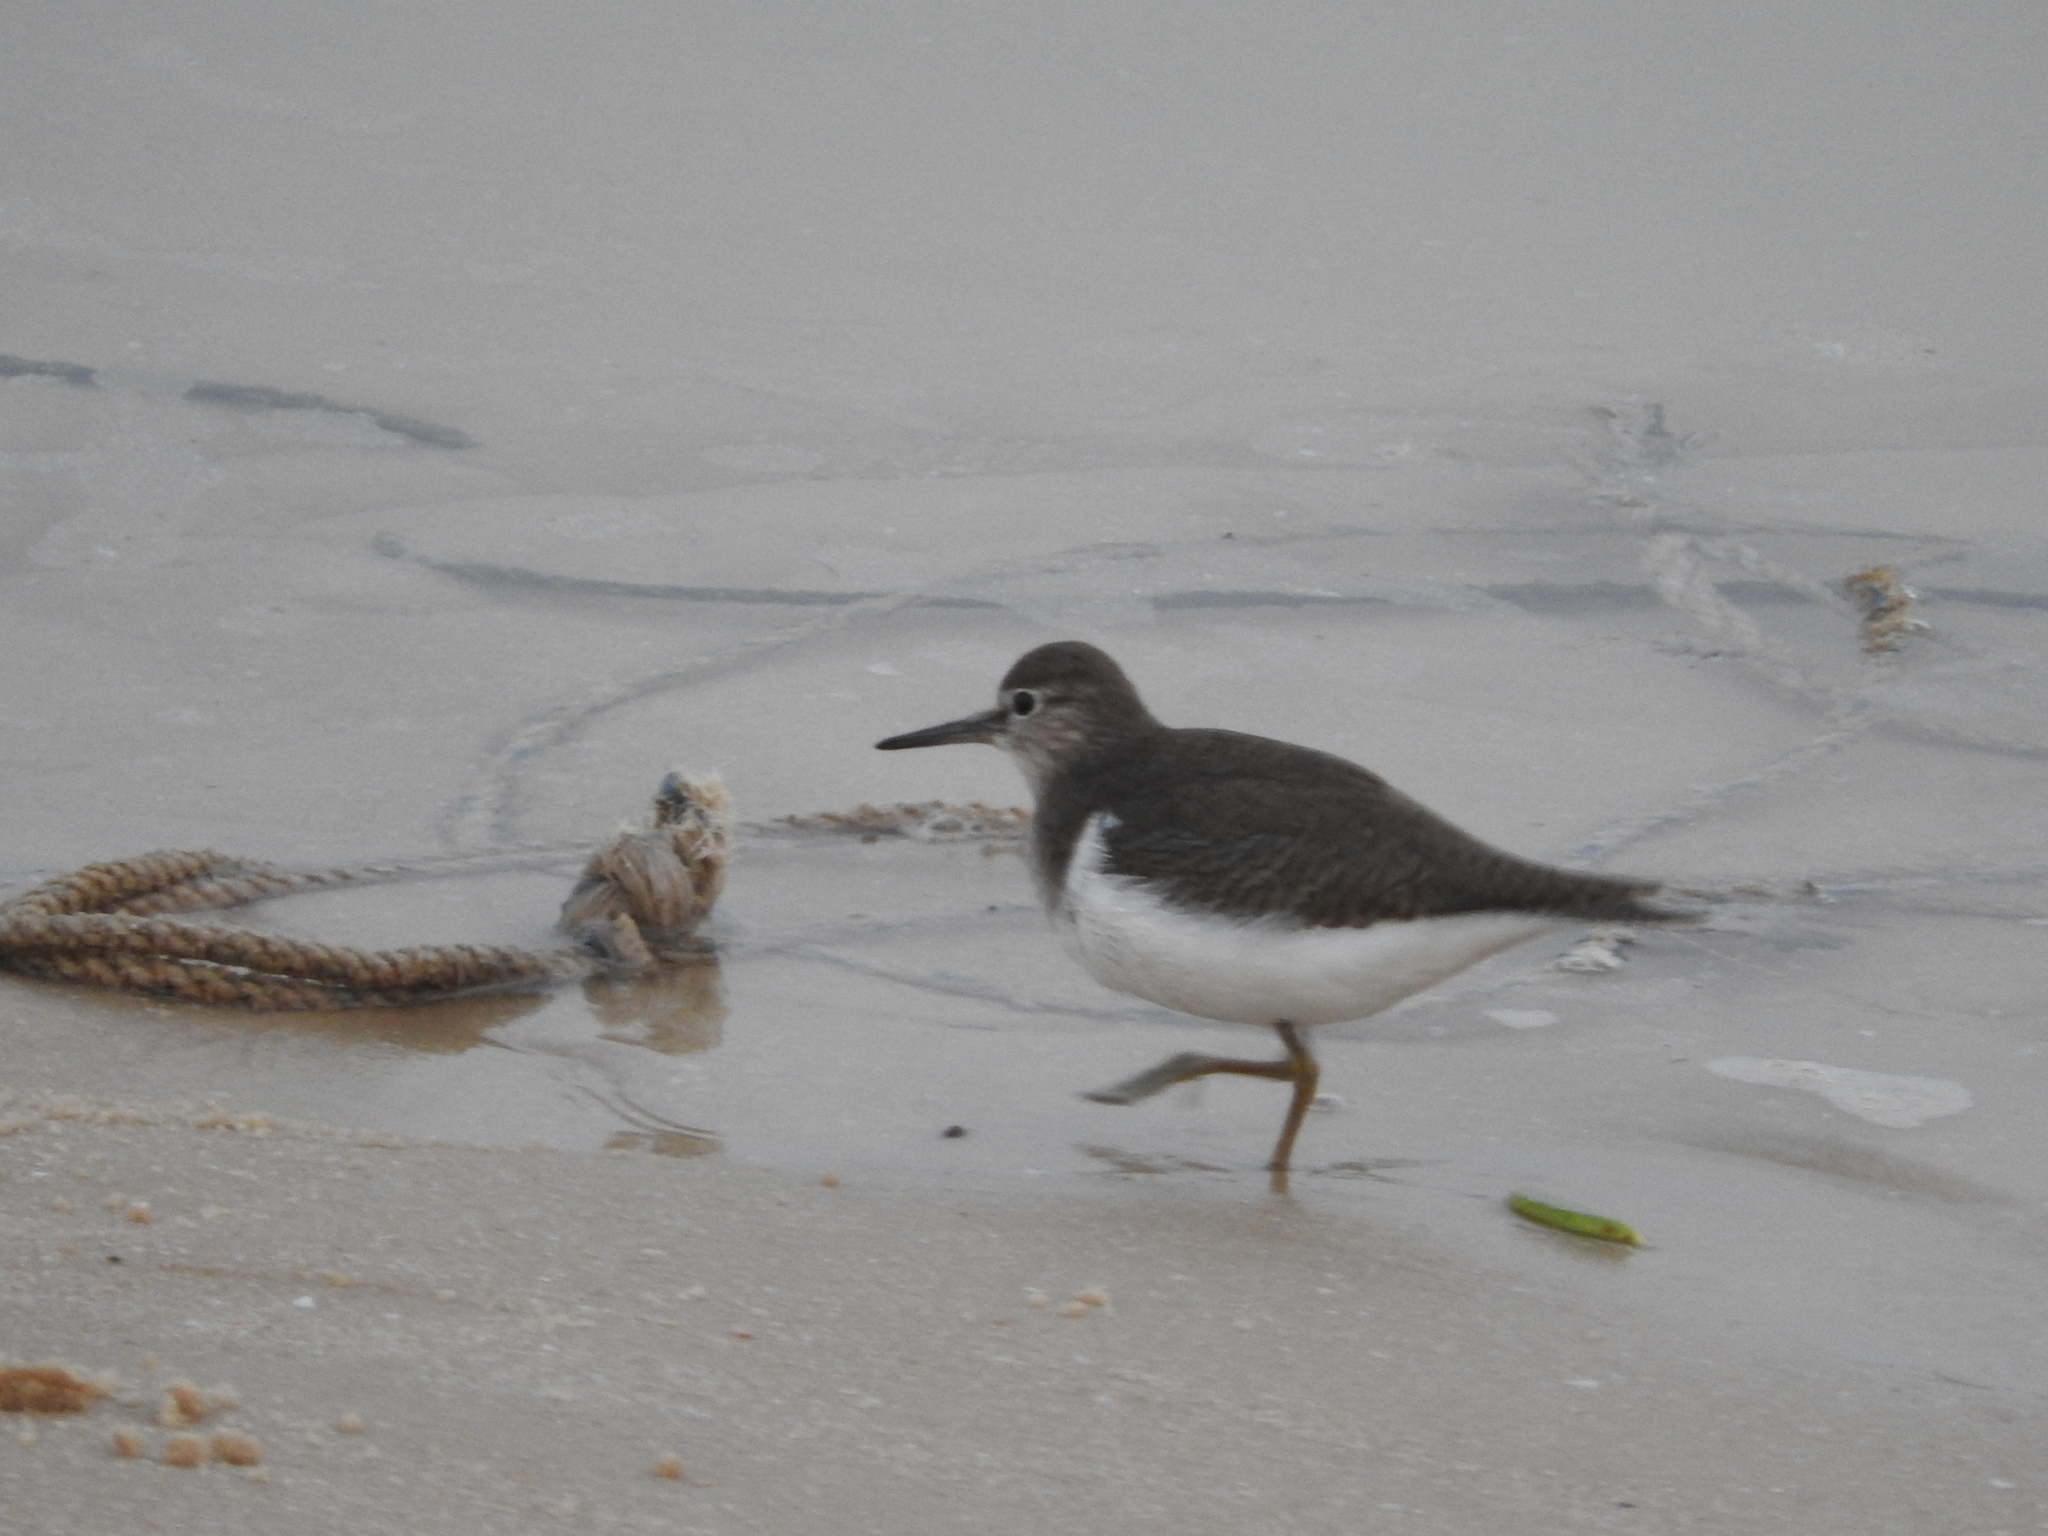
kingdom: Animalia
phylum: Chordata
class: Aves
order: Charadriiformes
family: Scolopacidae
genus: Actitis
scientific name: Actitis hypoleucos
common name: Common sandpiper
